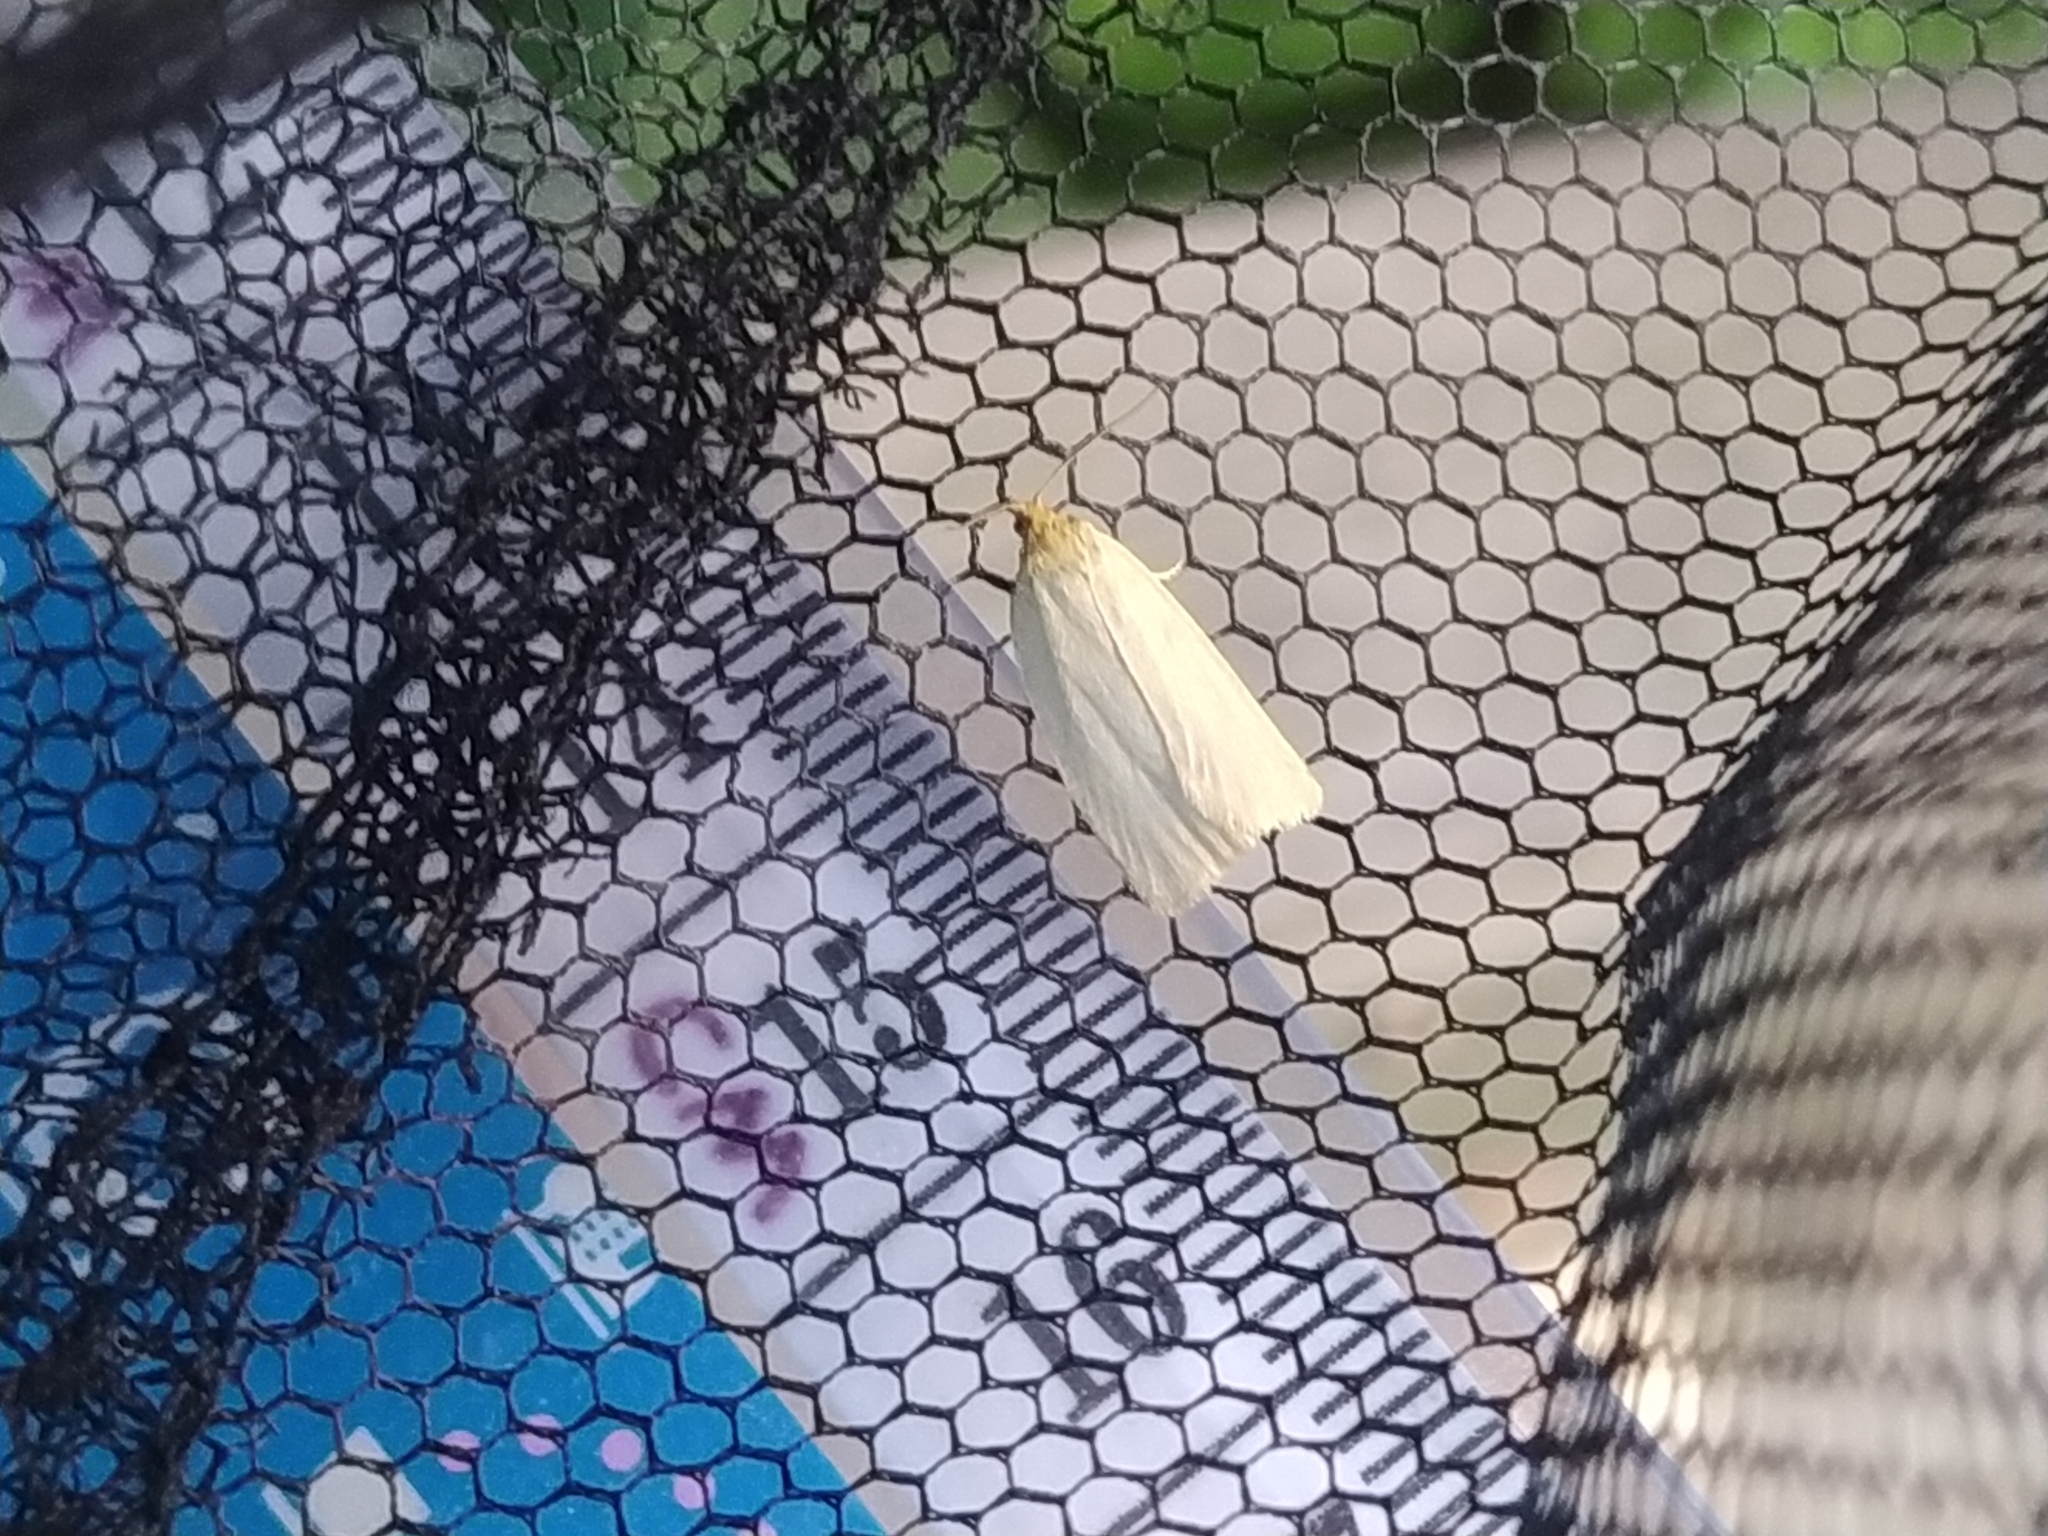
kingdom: Animalia
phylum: Arthropoda
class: Insecta
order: Lepidoptera
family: Tortricidae
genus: Eana
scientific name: Eana argentana
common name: Silver shade
